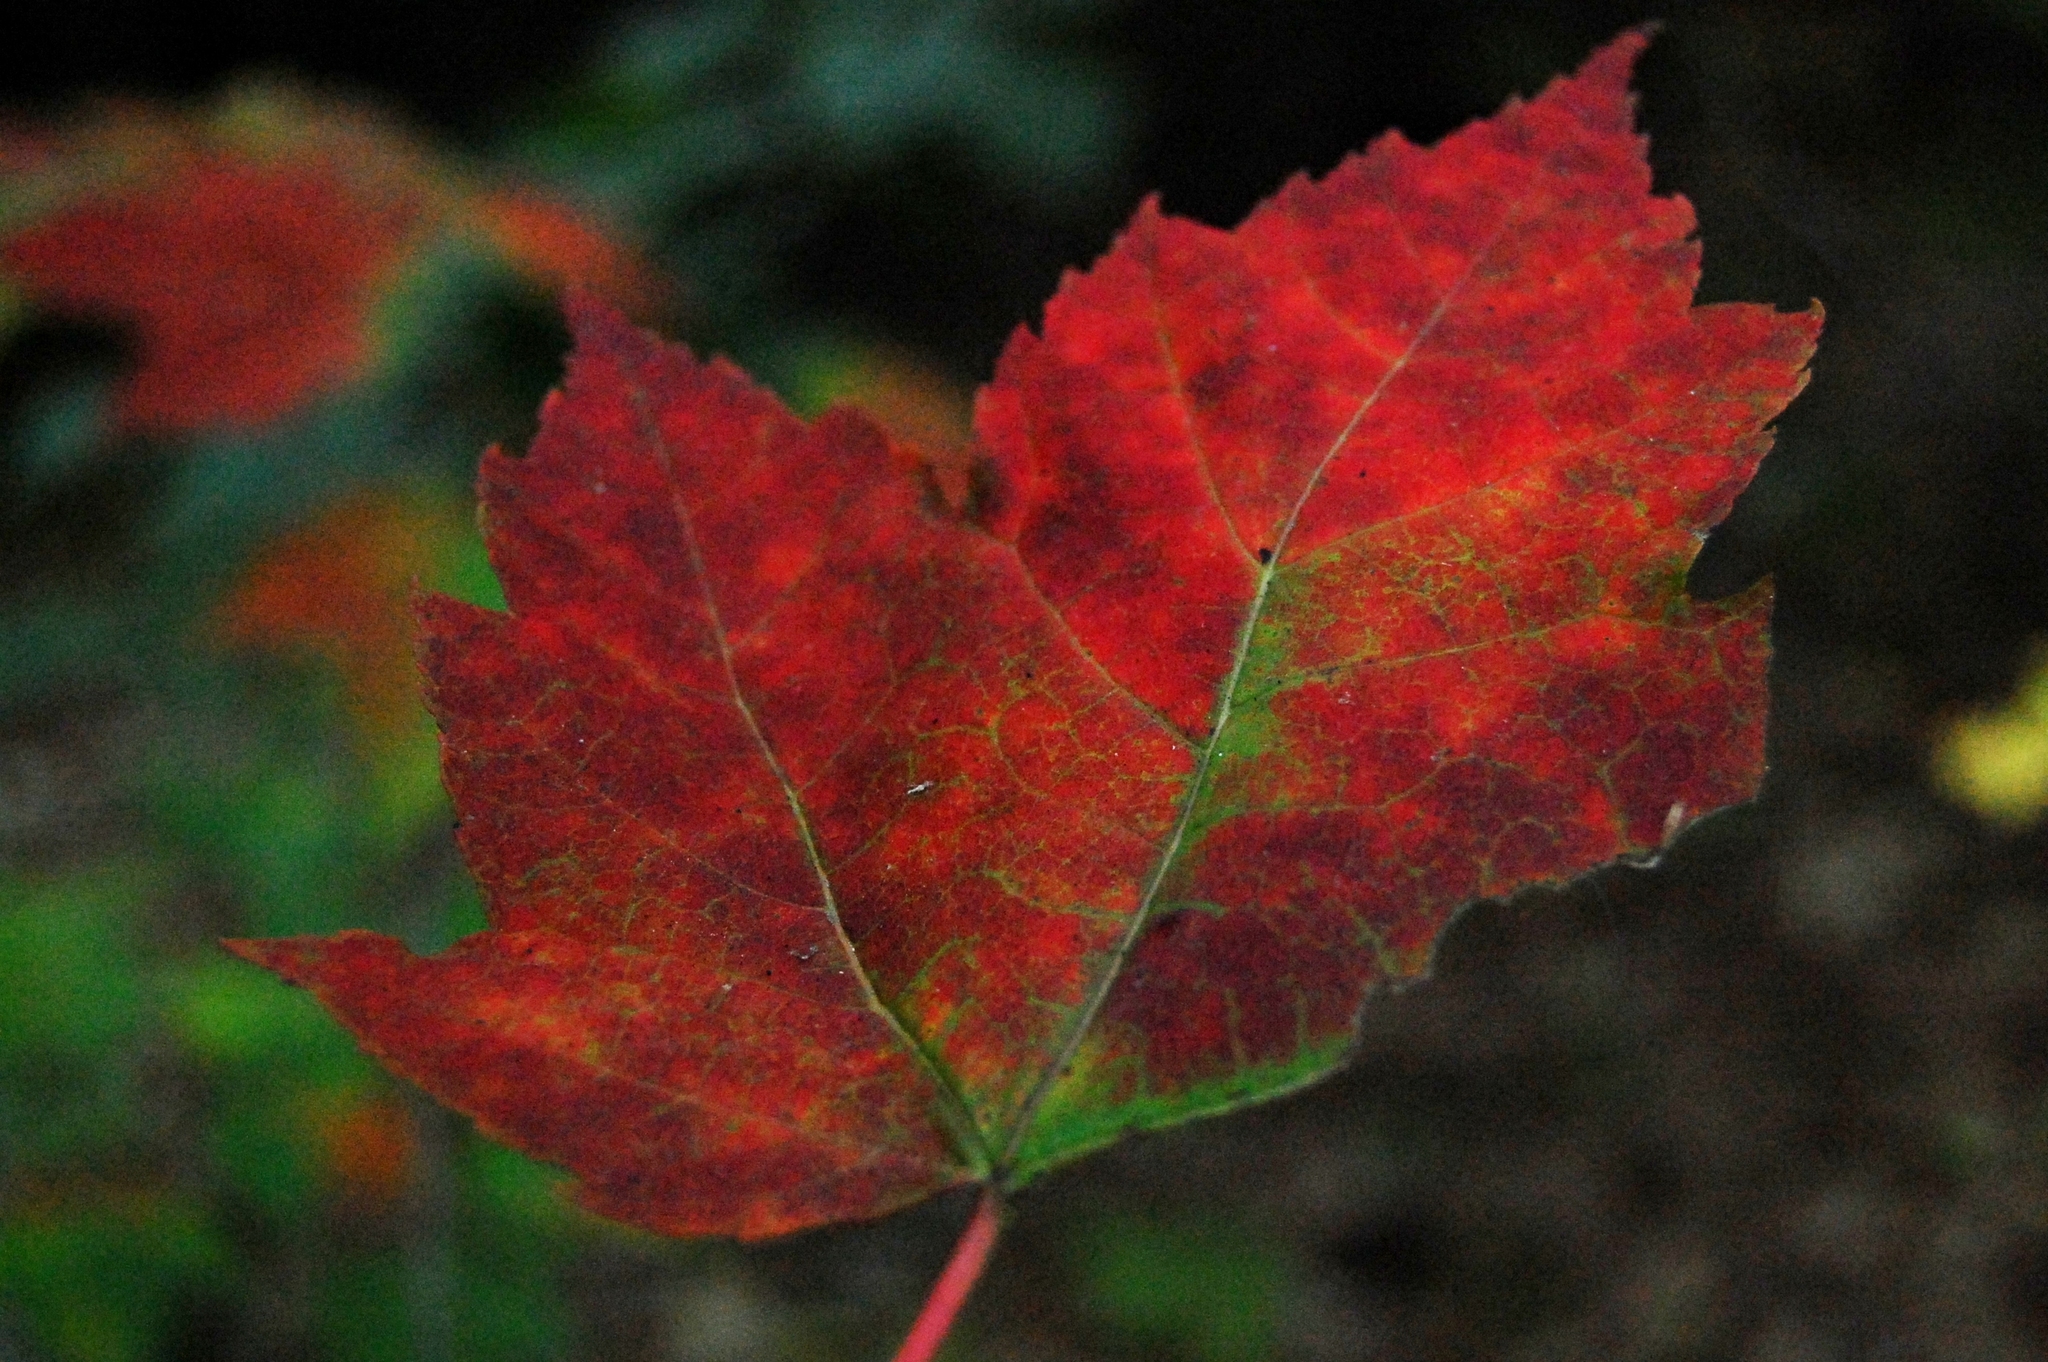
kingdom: Plantae
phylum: Tracheophyta
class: Magnoliopsida
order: Sapindales
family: Sapindaceae
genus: Acer
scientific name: Acer rubrum
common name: Red maple
